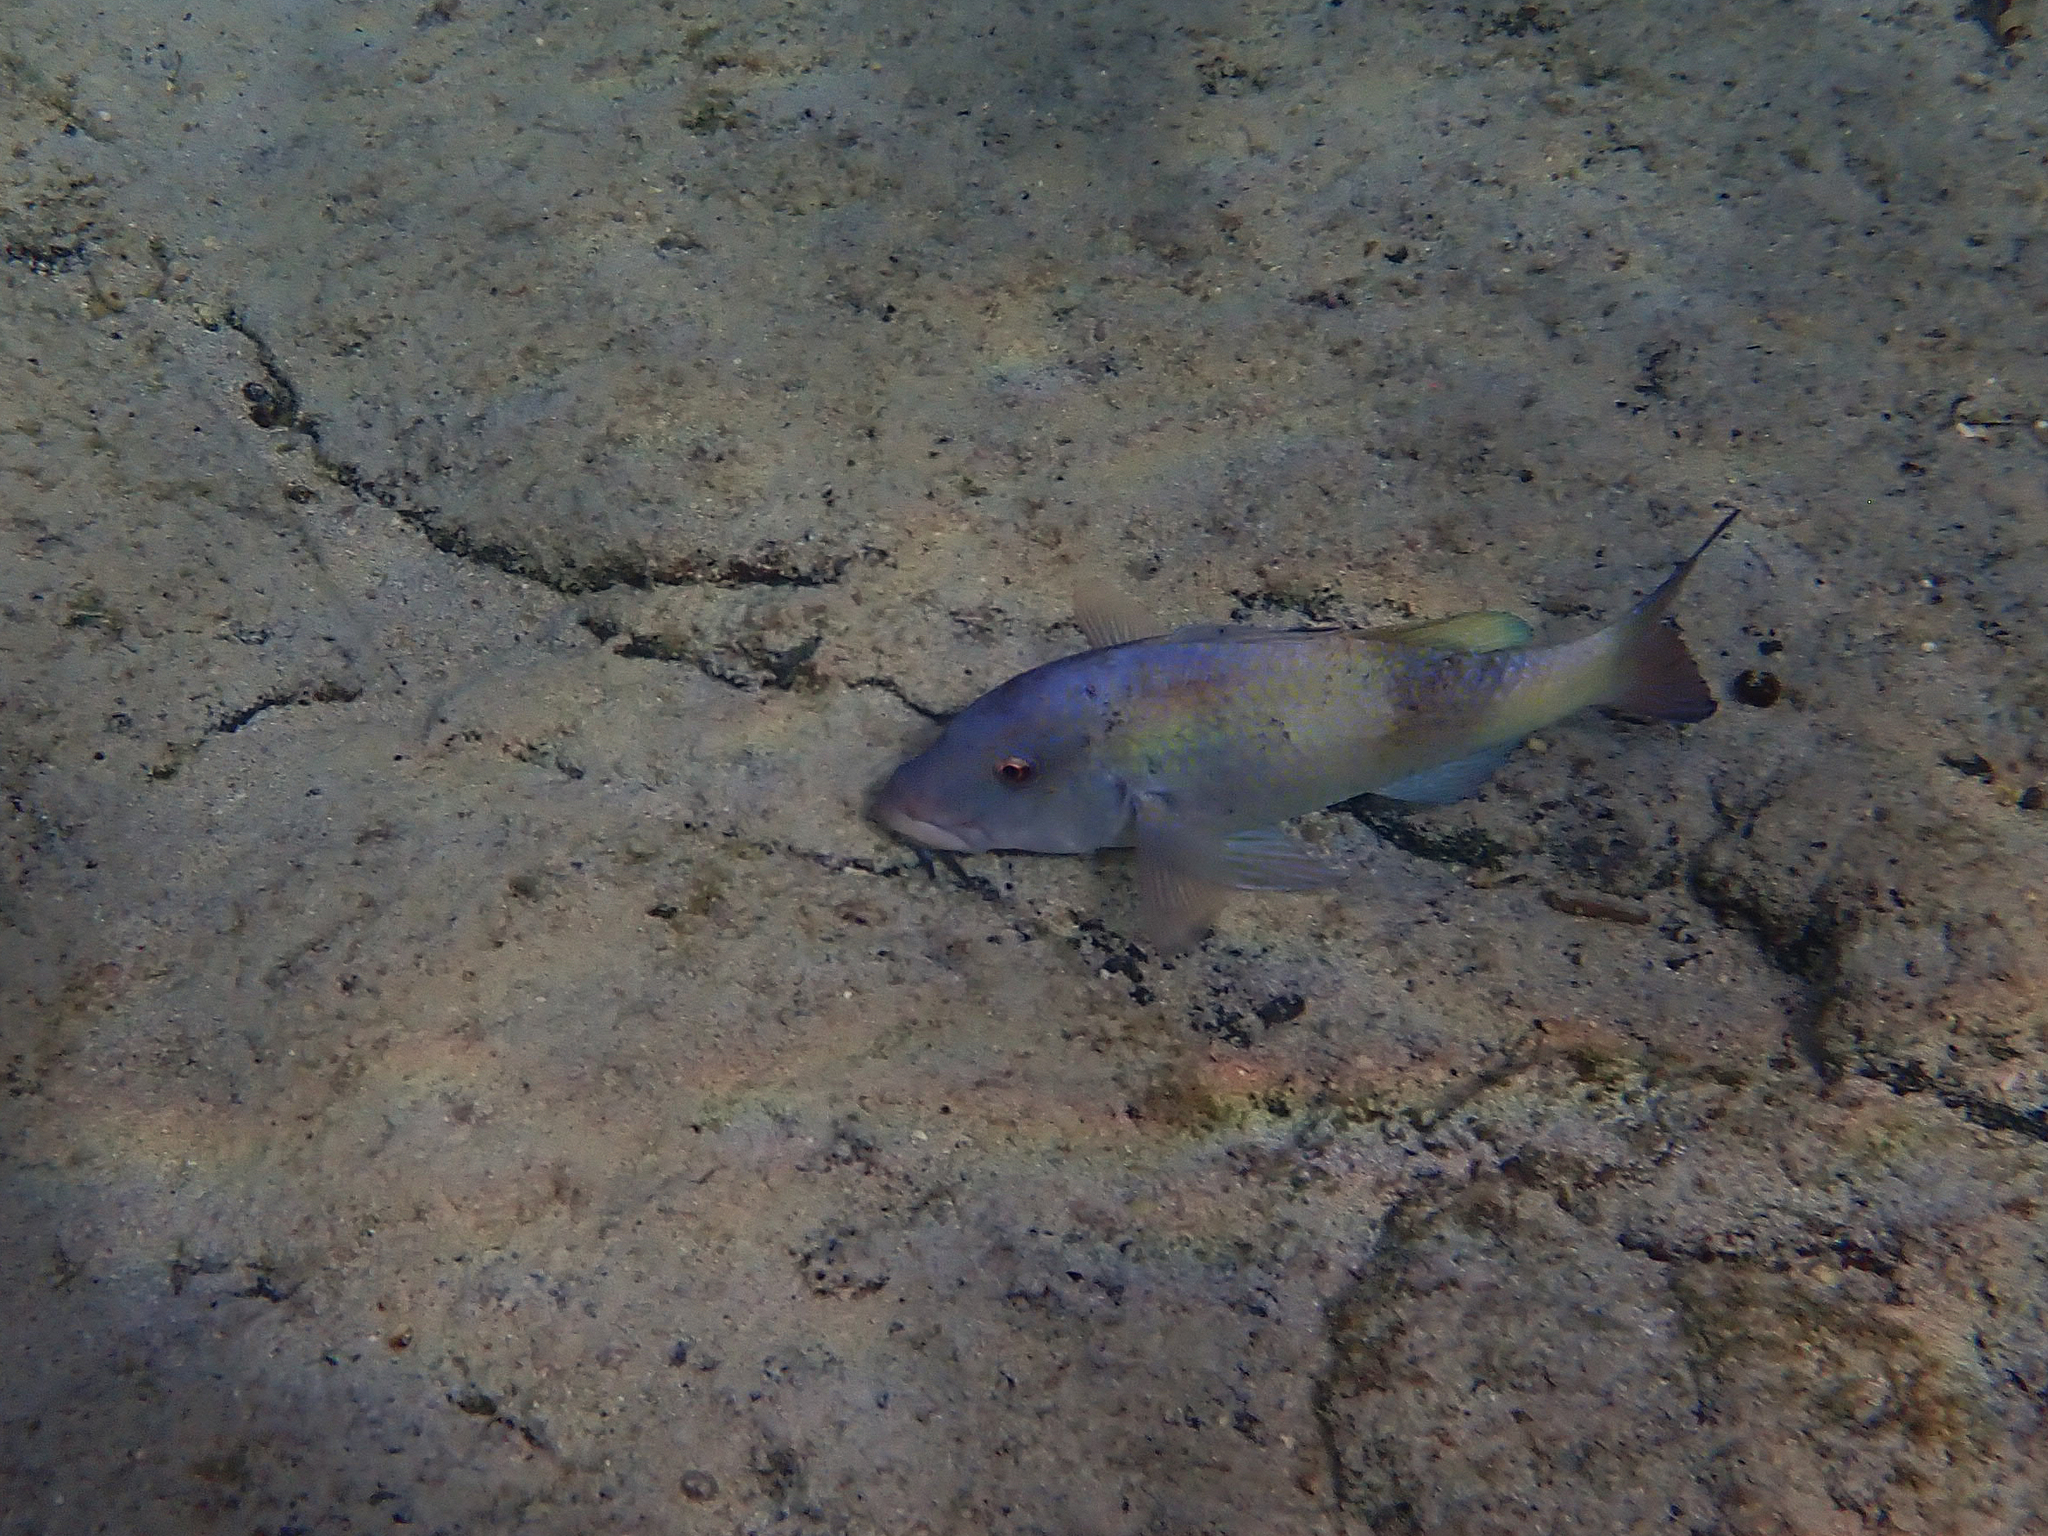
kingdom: Animalia
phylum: Chordata
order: Perciformes
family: Mullidae
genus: Parupeneus
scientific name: Parupeneus insularis
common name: Doublebar goatfish
